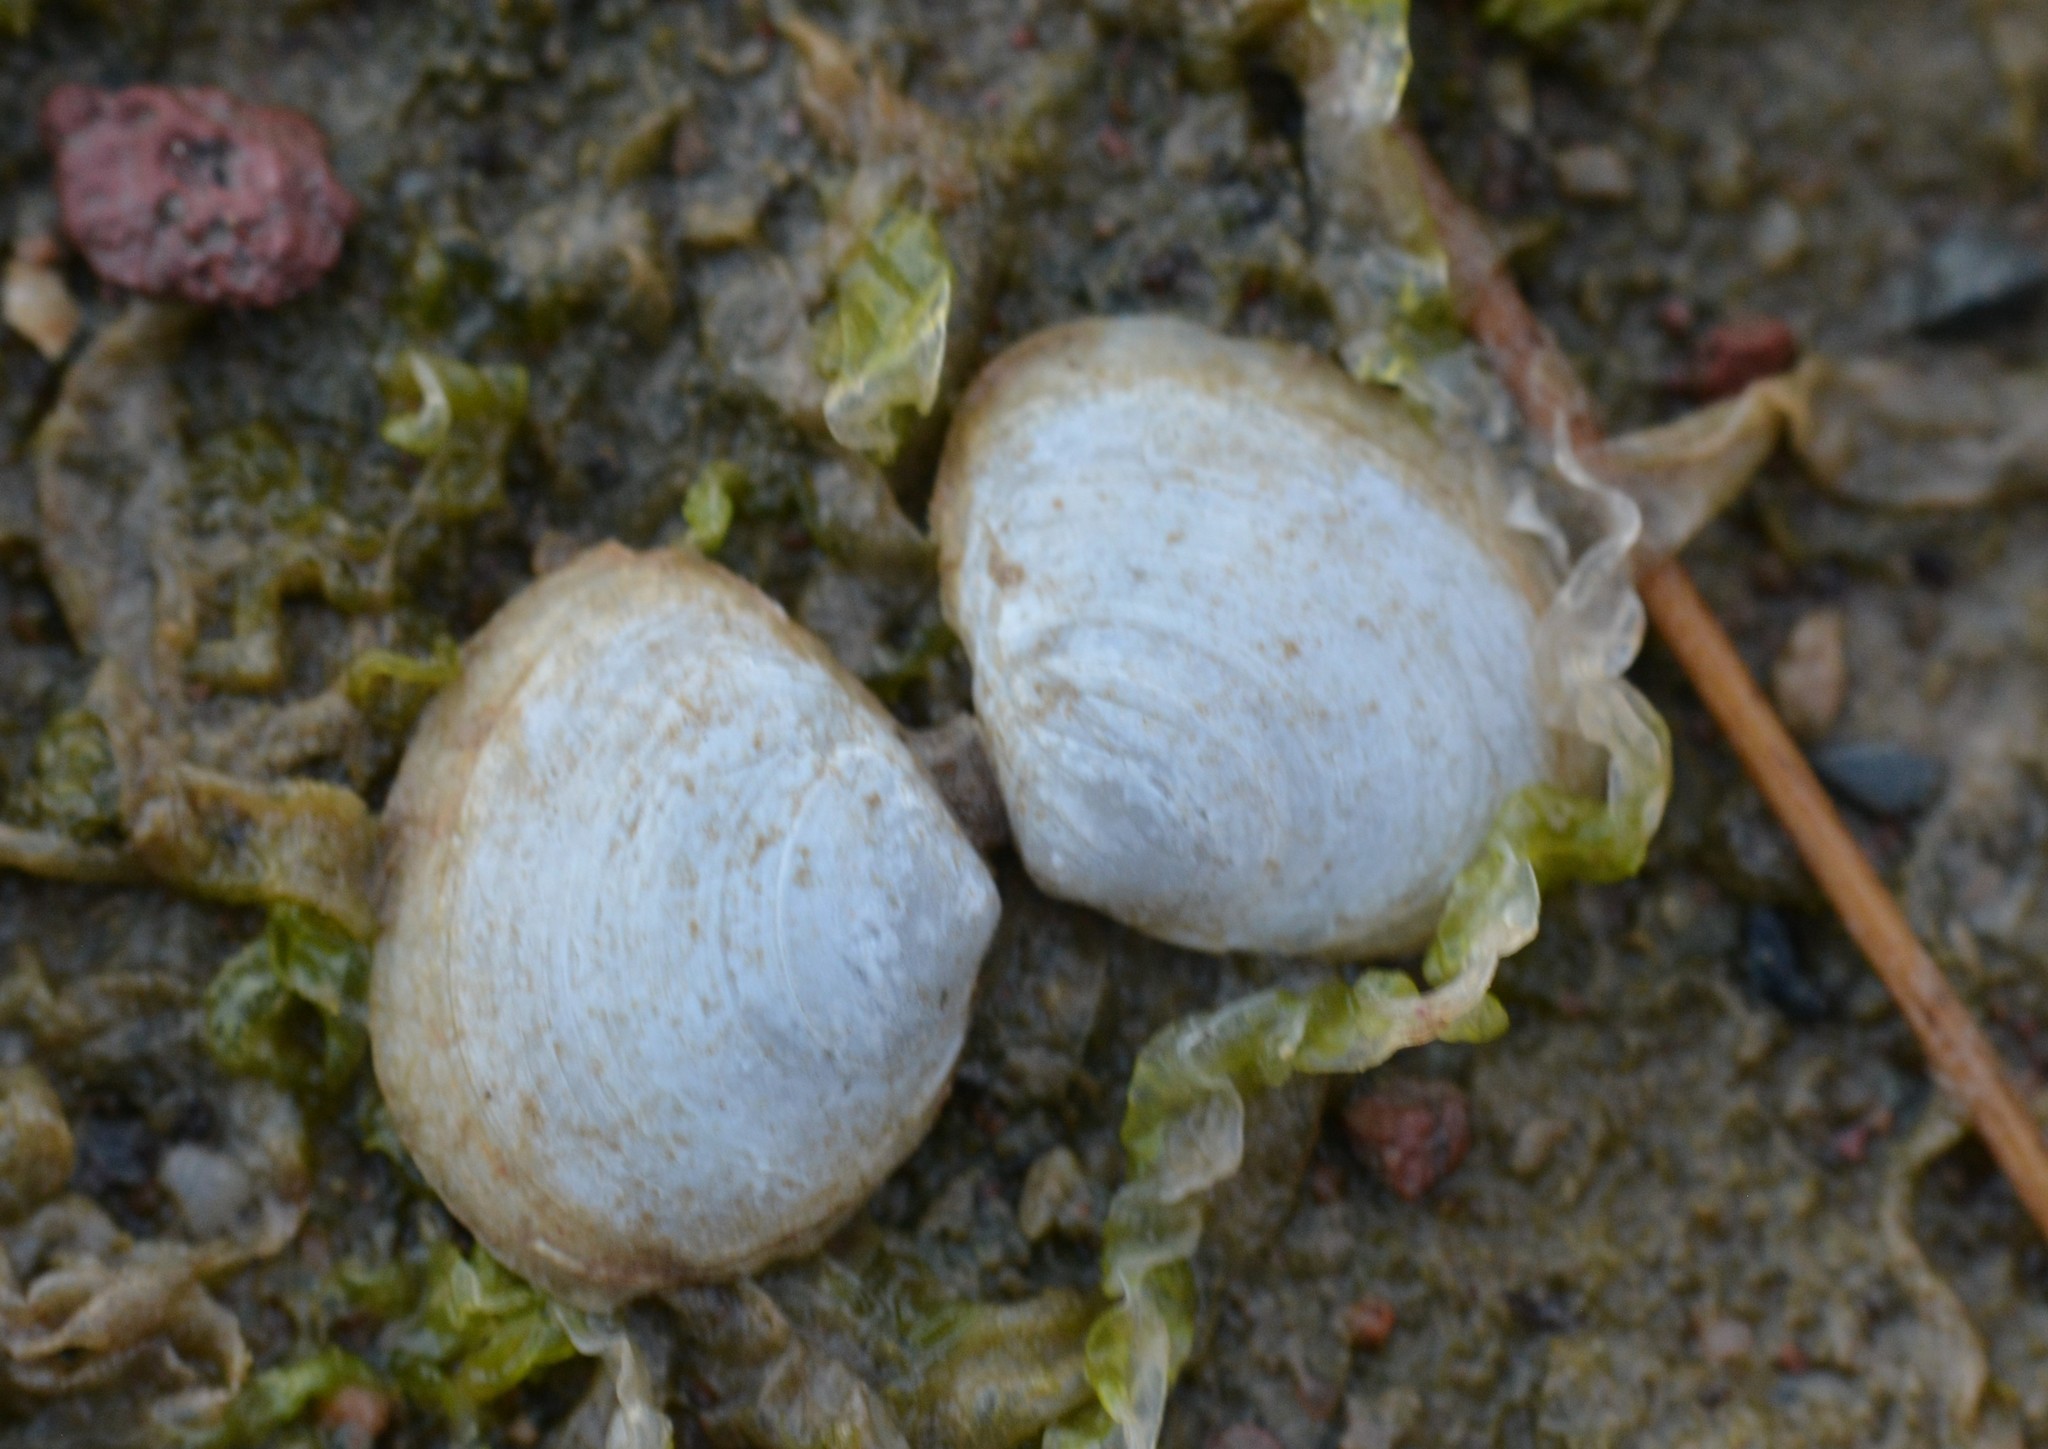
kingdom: Animalia
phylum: Mollusca
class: Bivalvia
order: Cardiida
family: Tellinidae
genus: Macoma
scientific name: Macoma petalum
